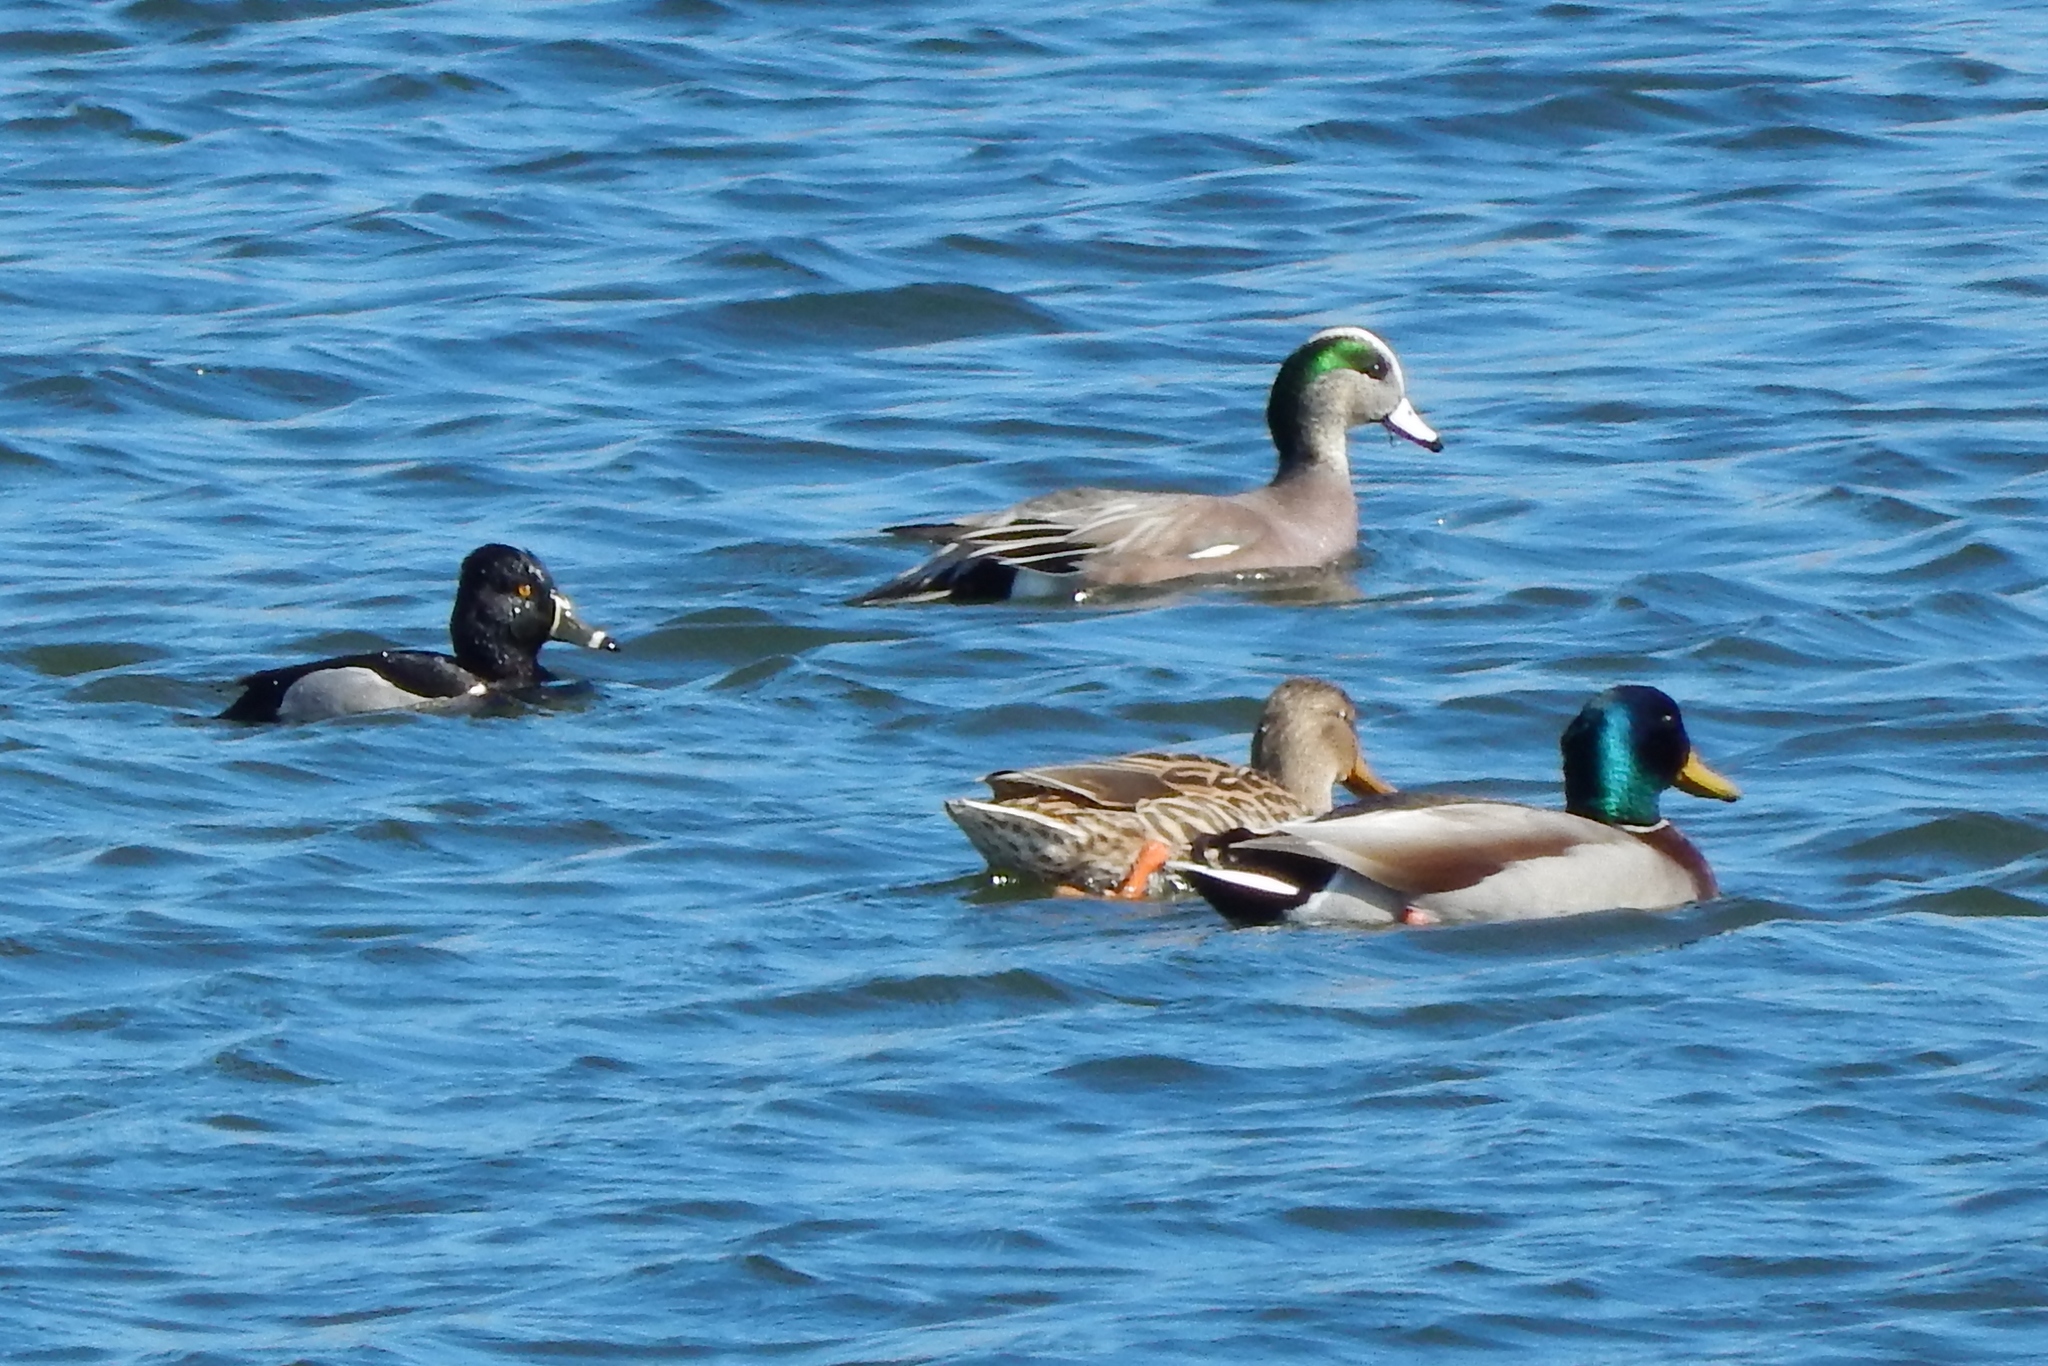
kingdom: Animalia
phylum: Chordata
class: Aves
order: Anseriformes
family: Anatidae
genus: Mareca
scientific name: Mareca americana
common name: American wigeon
